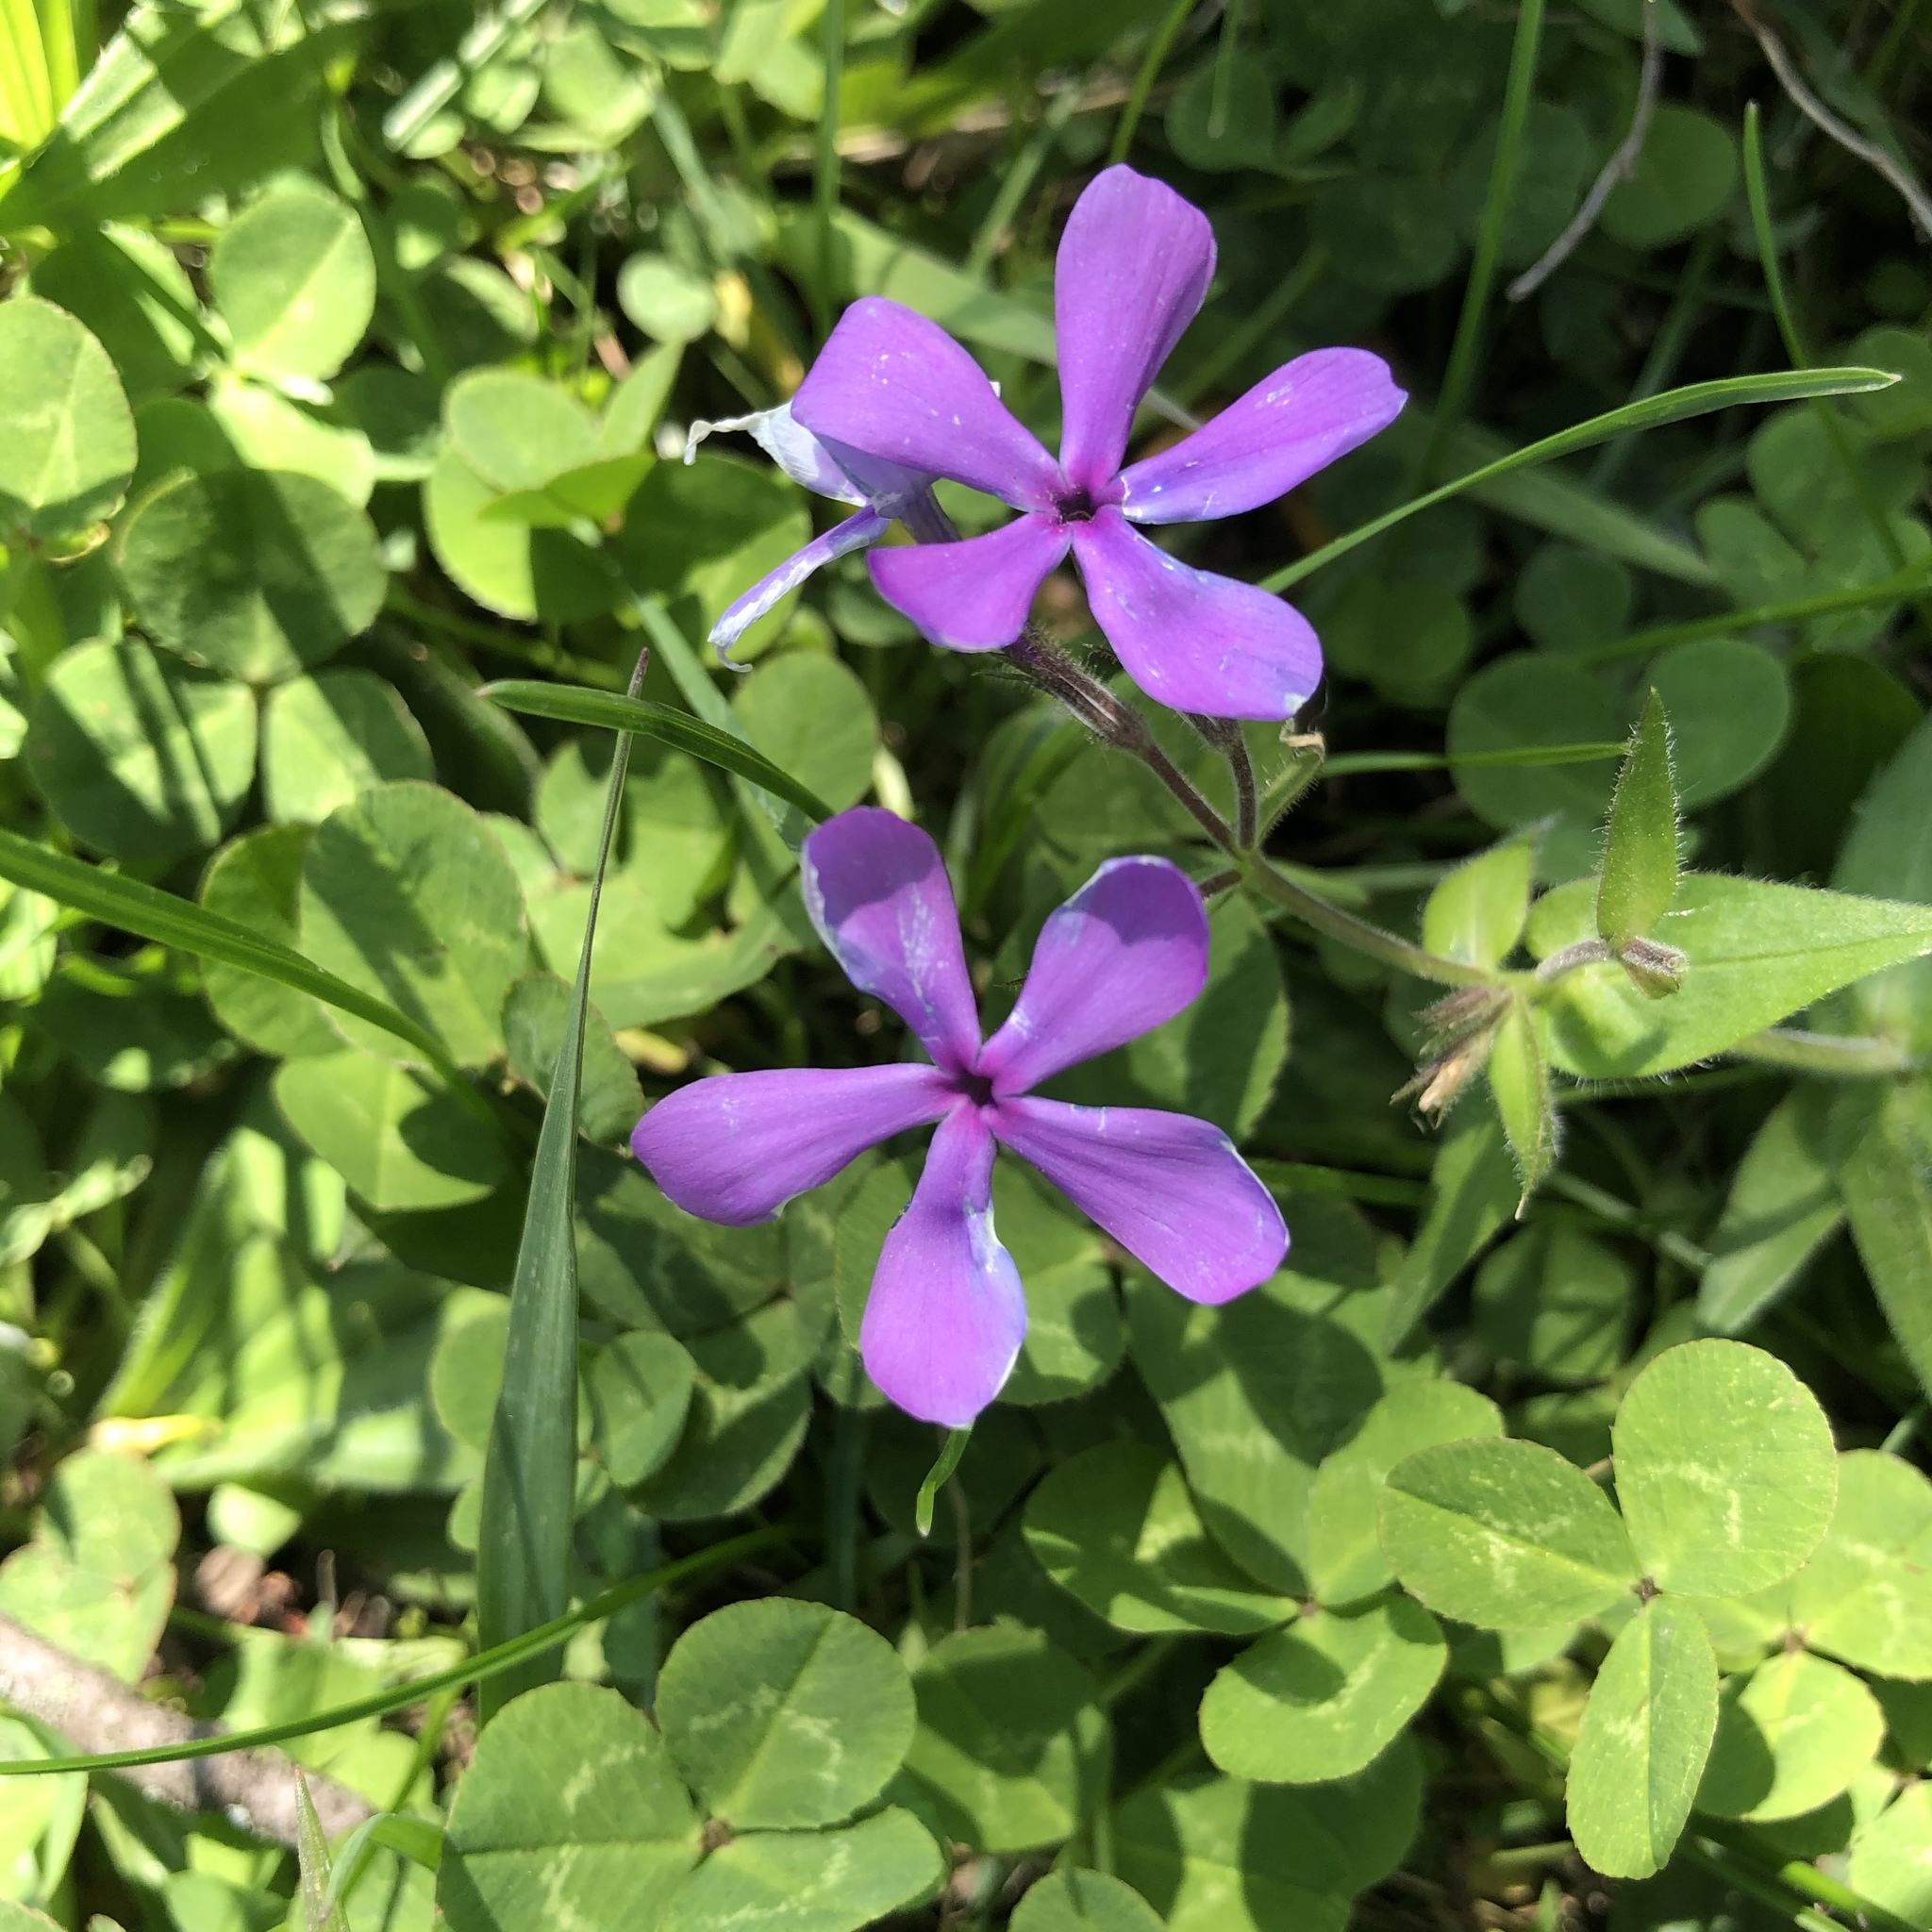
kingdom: Plantae
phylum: Tracheophyta
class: Magnoliopsida
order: Ericales
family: Polemoniaceae
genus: Phlox
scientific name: Phlox divaricata
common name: Blue phlox
